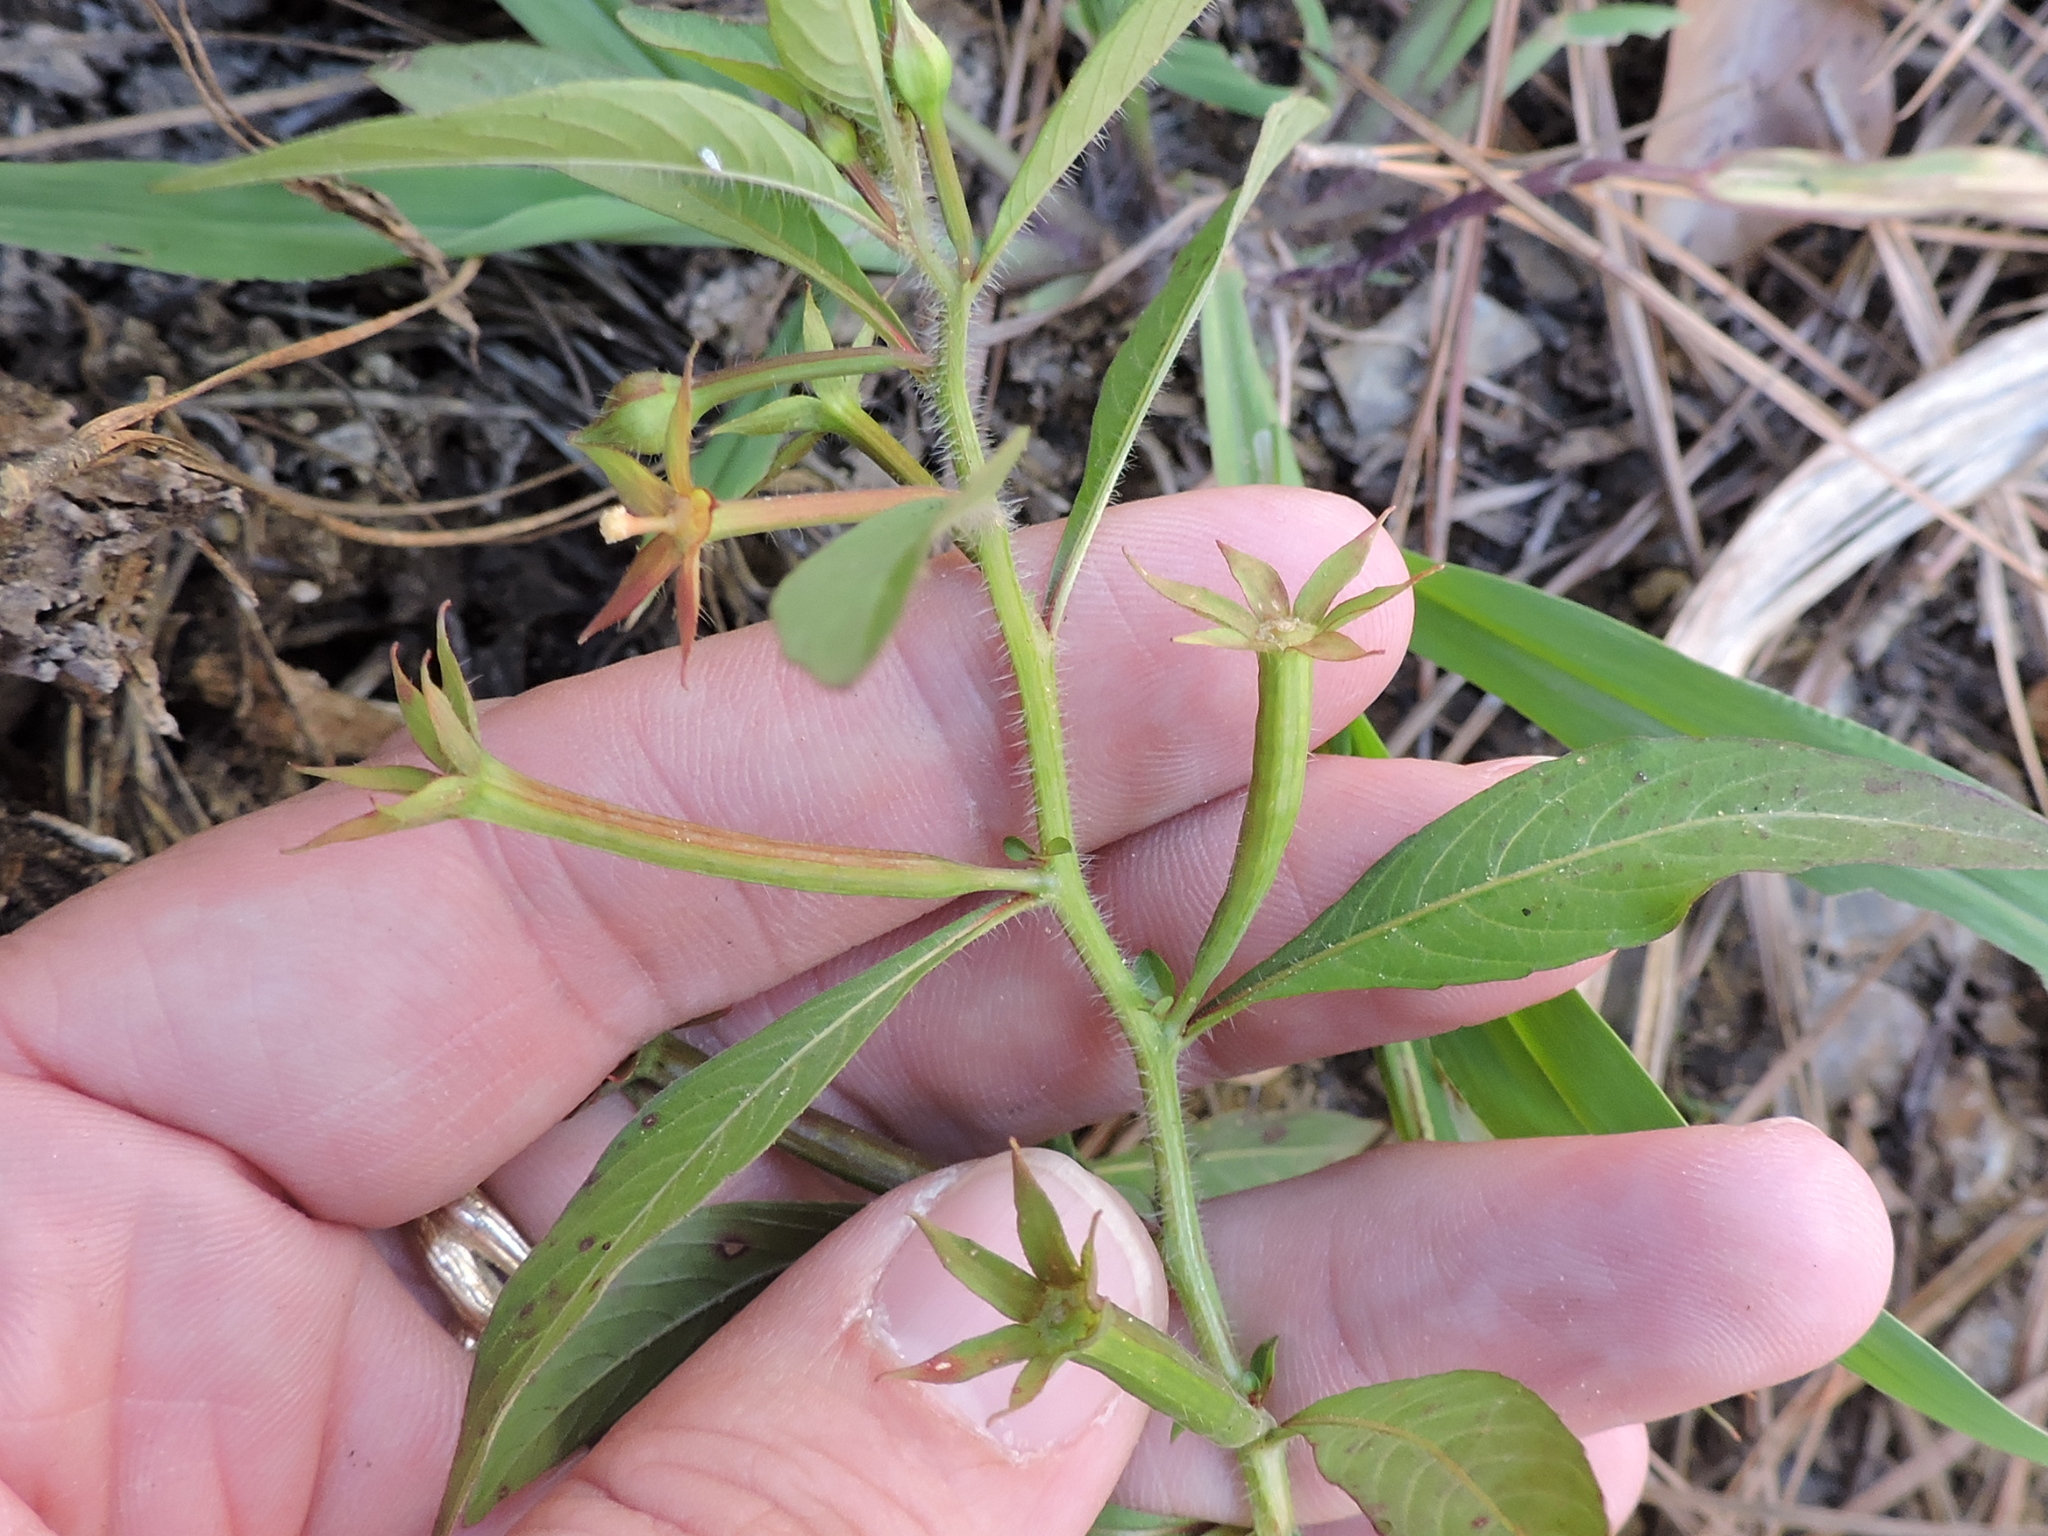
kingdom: Plantae
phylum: Tracheophyta
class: Magnoliopsida
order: Myrtales
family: Onagraceae
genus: Ludwigia
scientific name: Ludwigia leptocarpa
